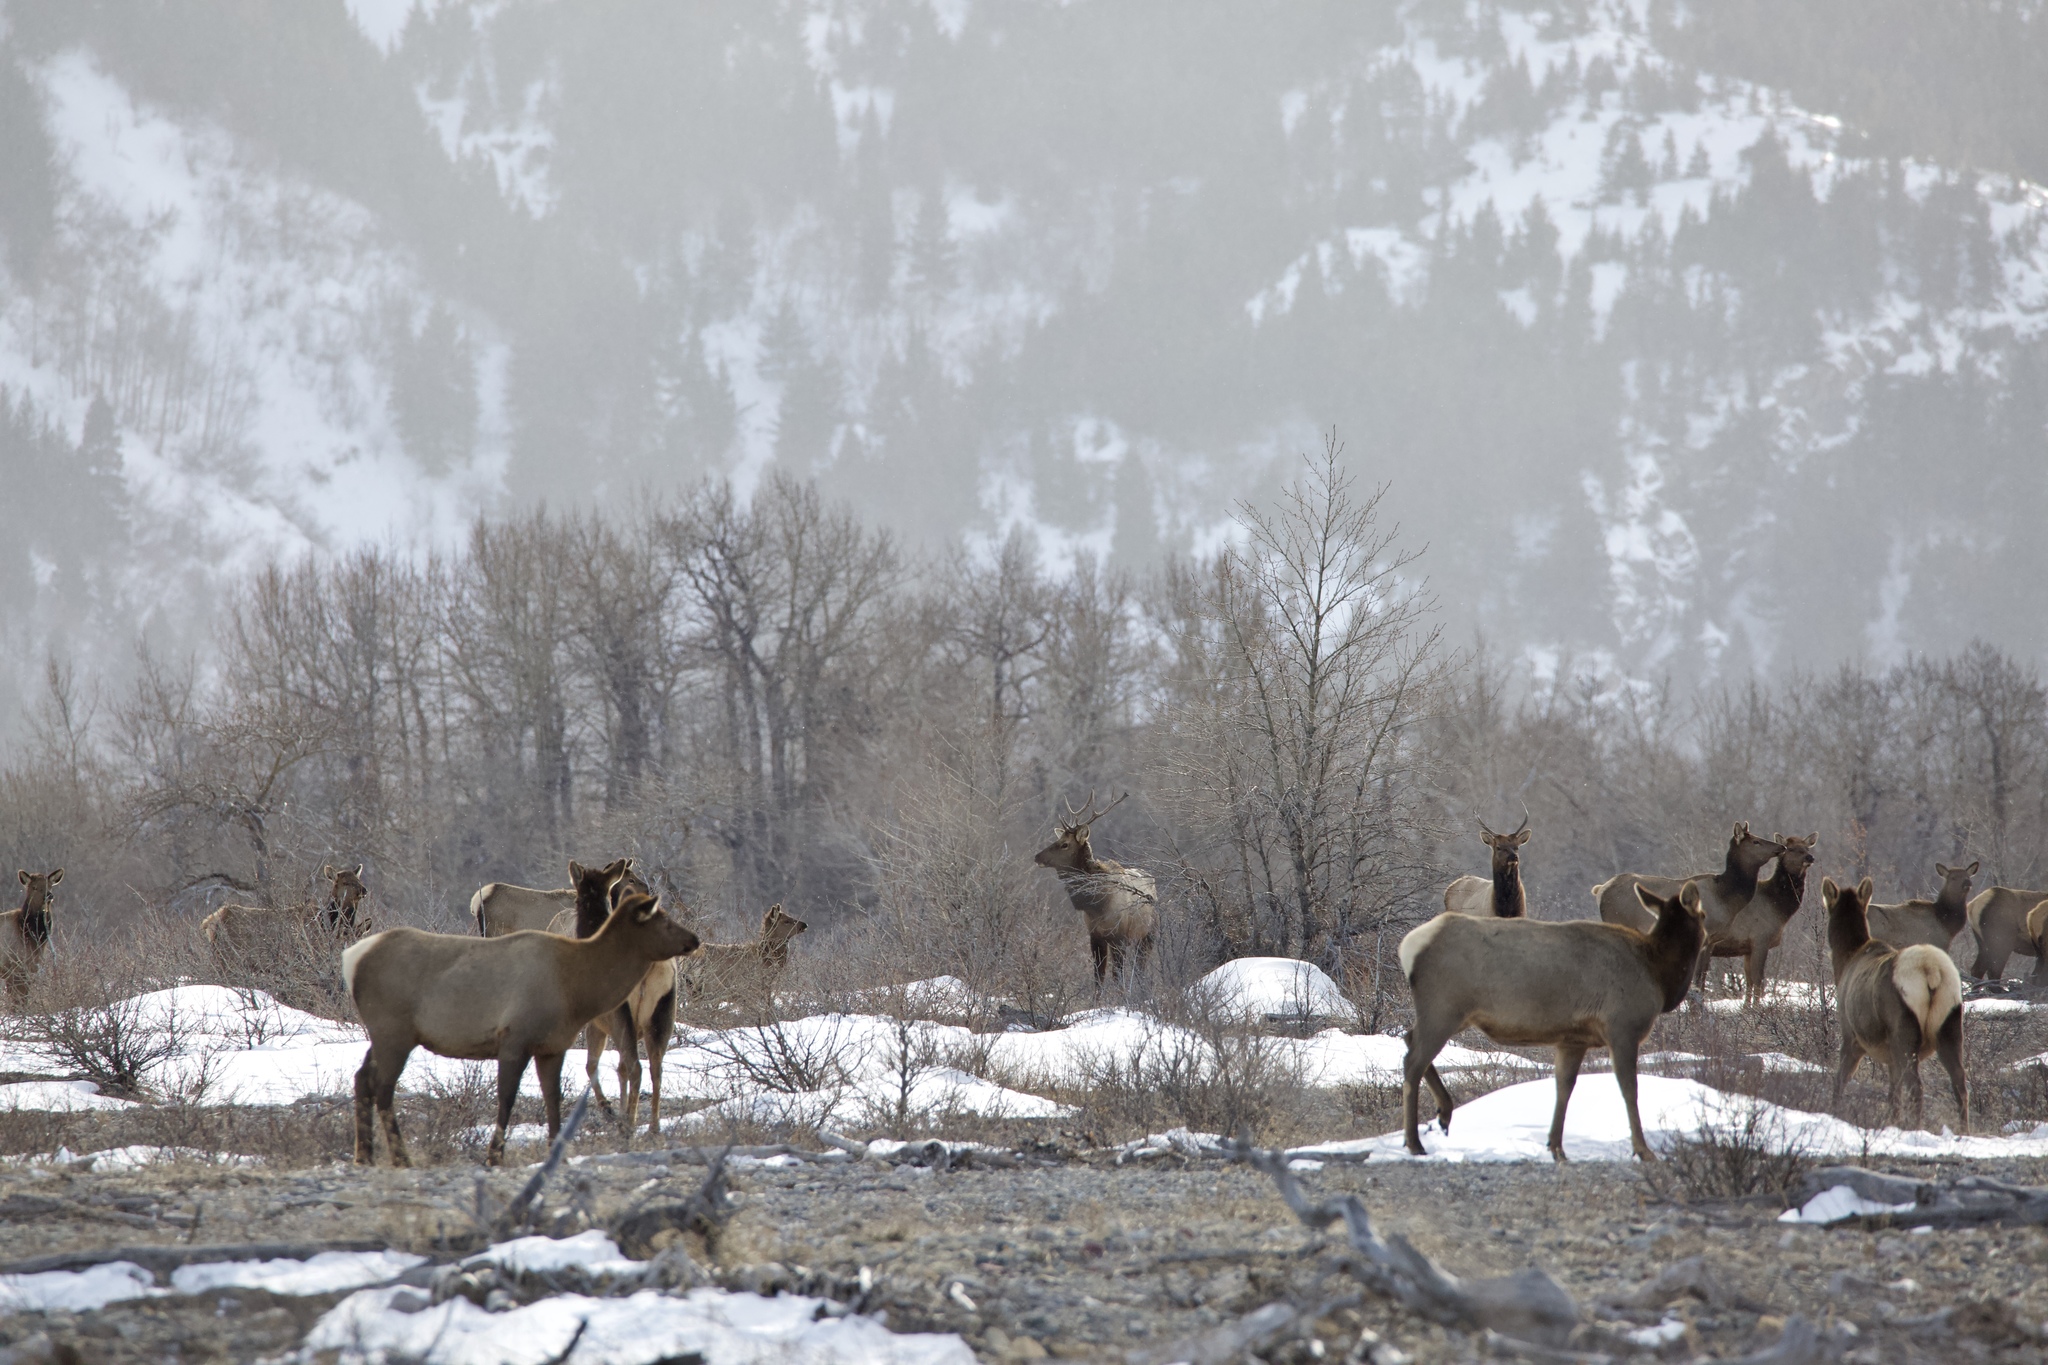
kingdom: Animalia
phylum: Chordata
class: Mammalia
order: Artiodactyla
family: Cervidae
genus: Cervus
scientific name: Cervus elaphus
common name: Red deer
